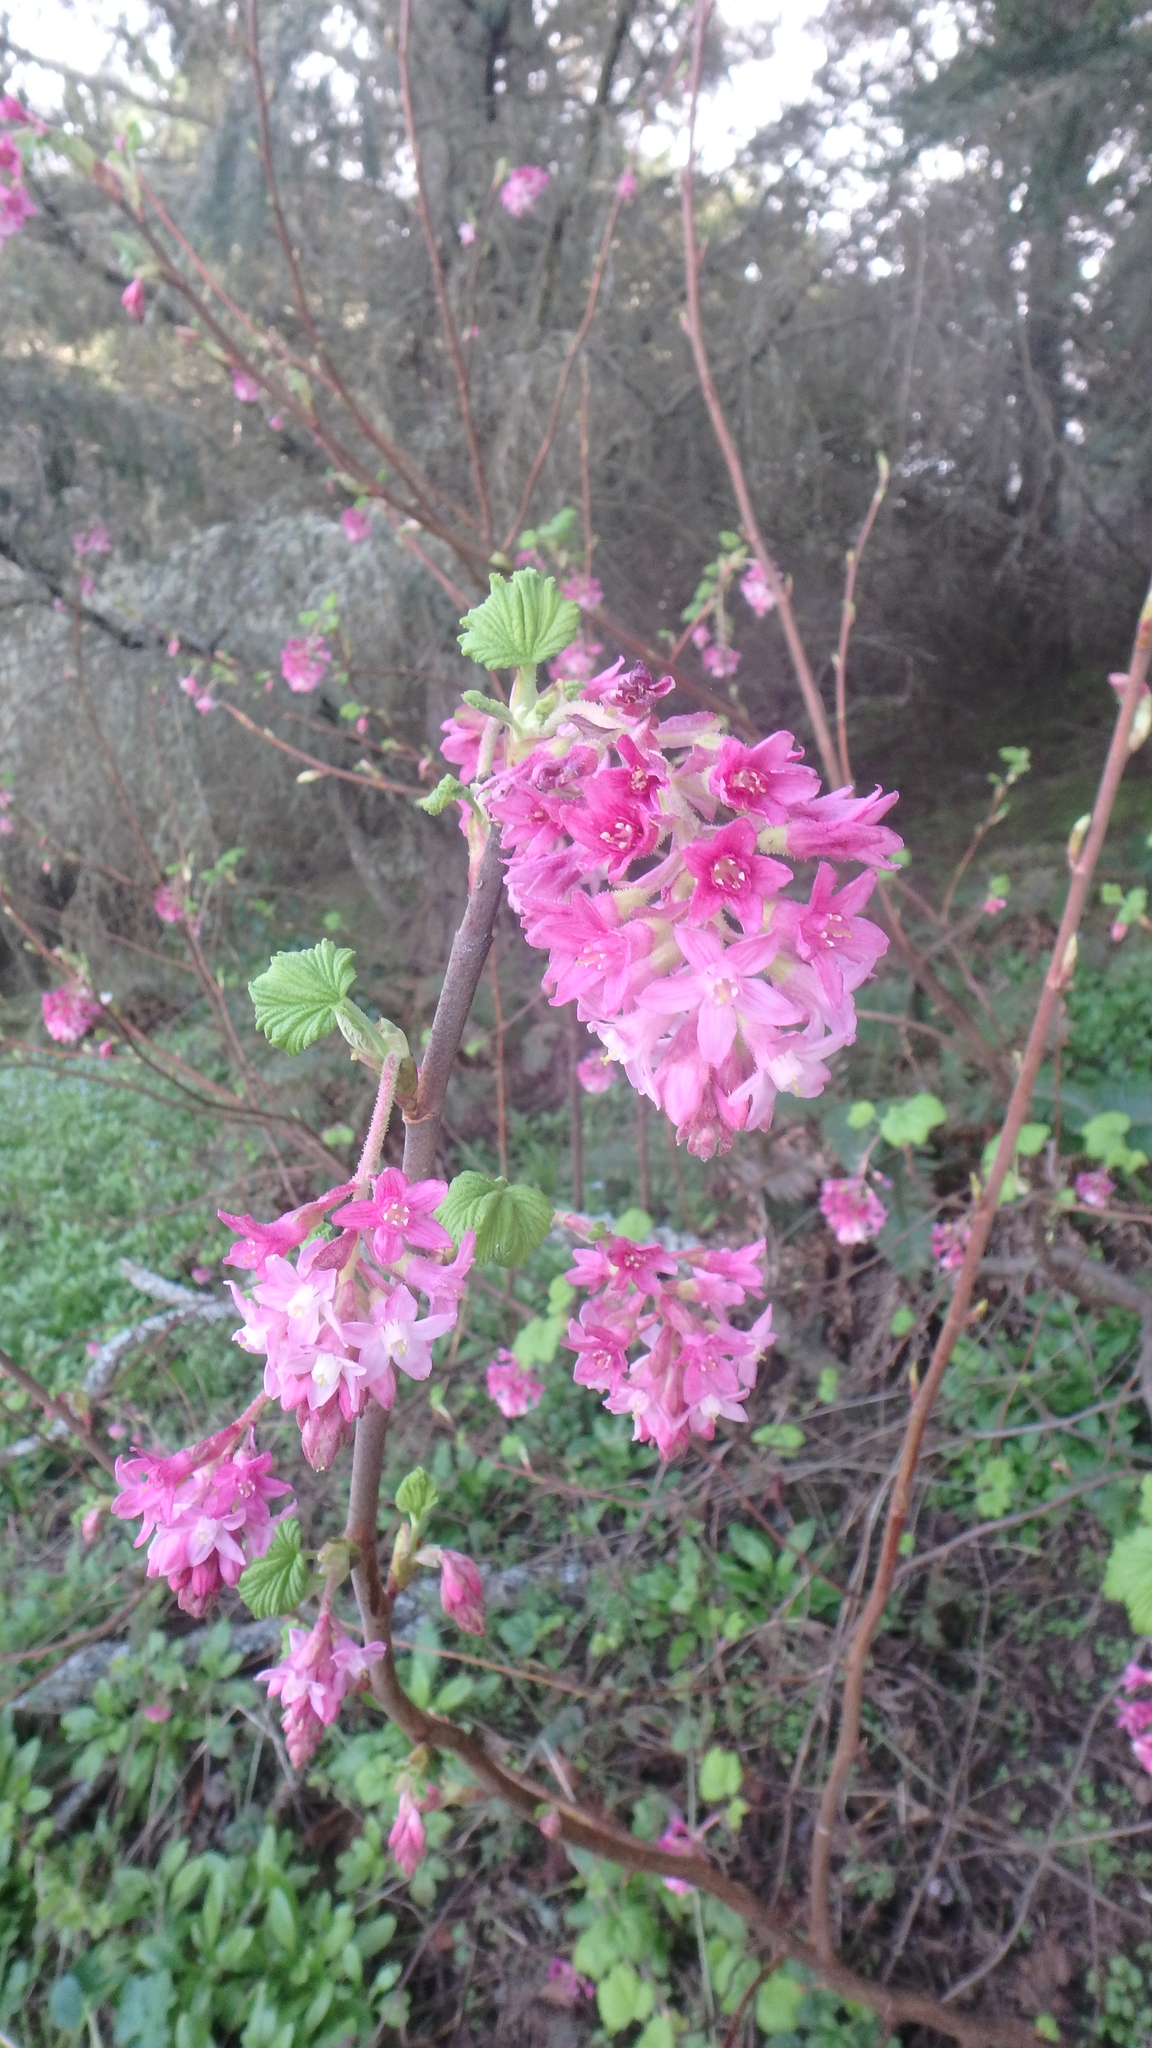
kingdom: Plantae
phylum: Tracheophyta
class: Magnoliopsida
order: Saxifragales
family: Grossulariaceae
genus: Ribes
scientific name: Ribes sanguineum
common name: Flowering currant
